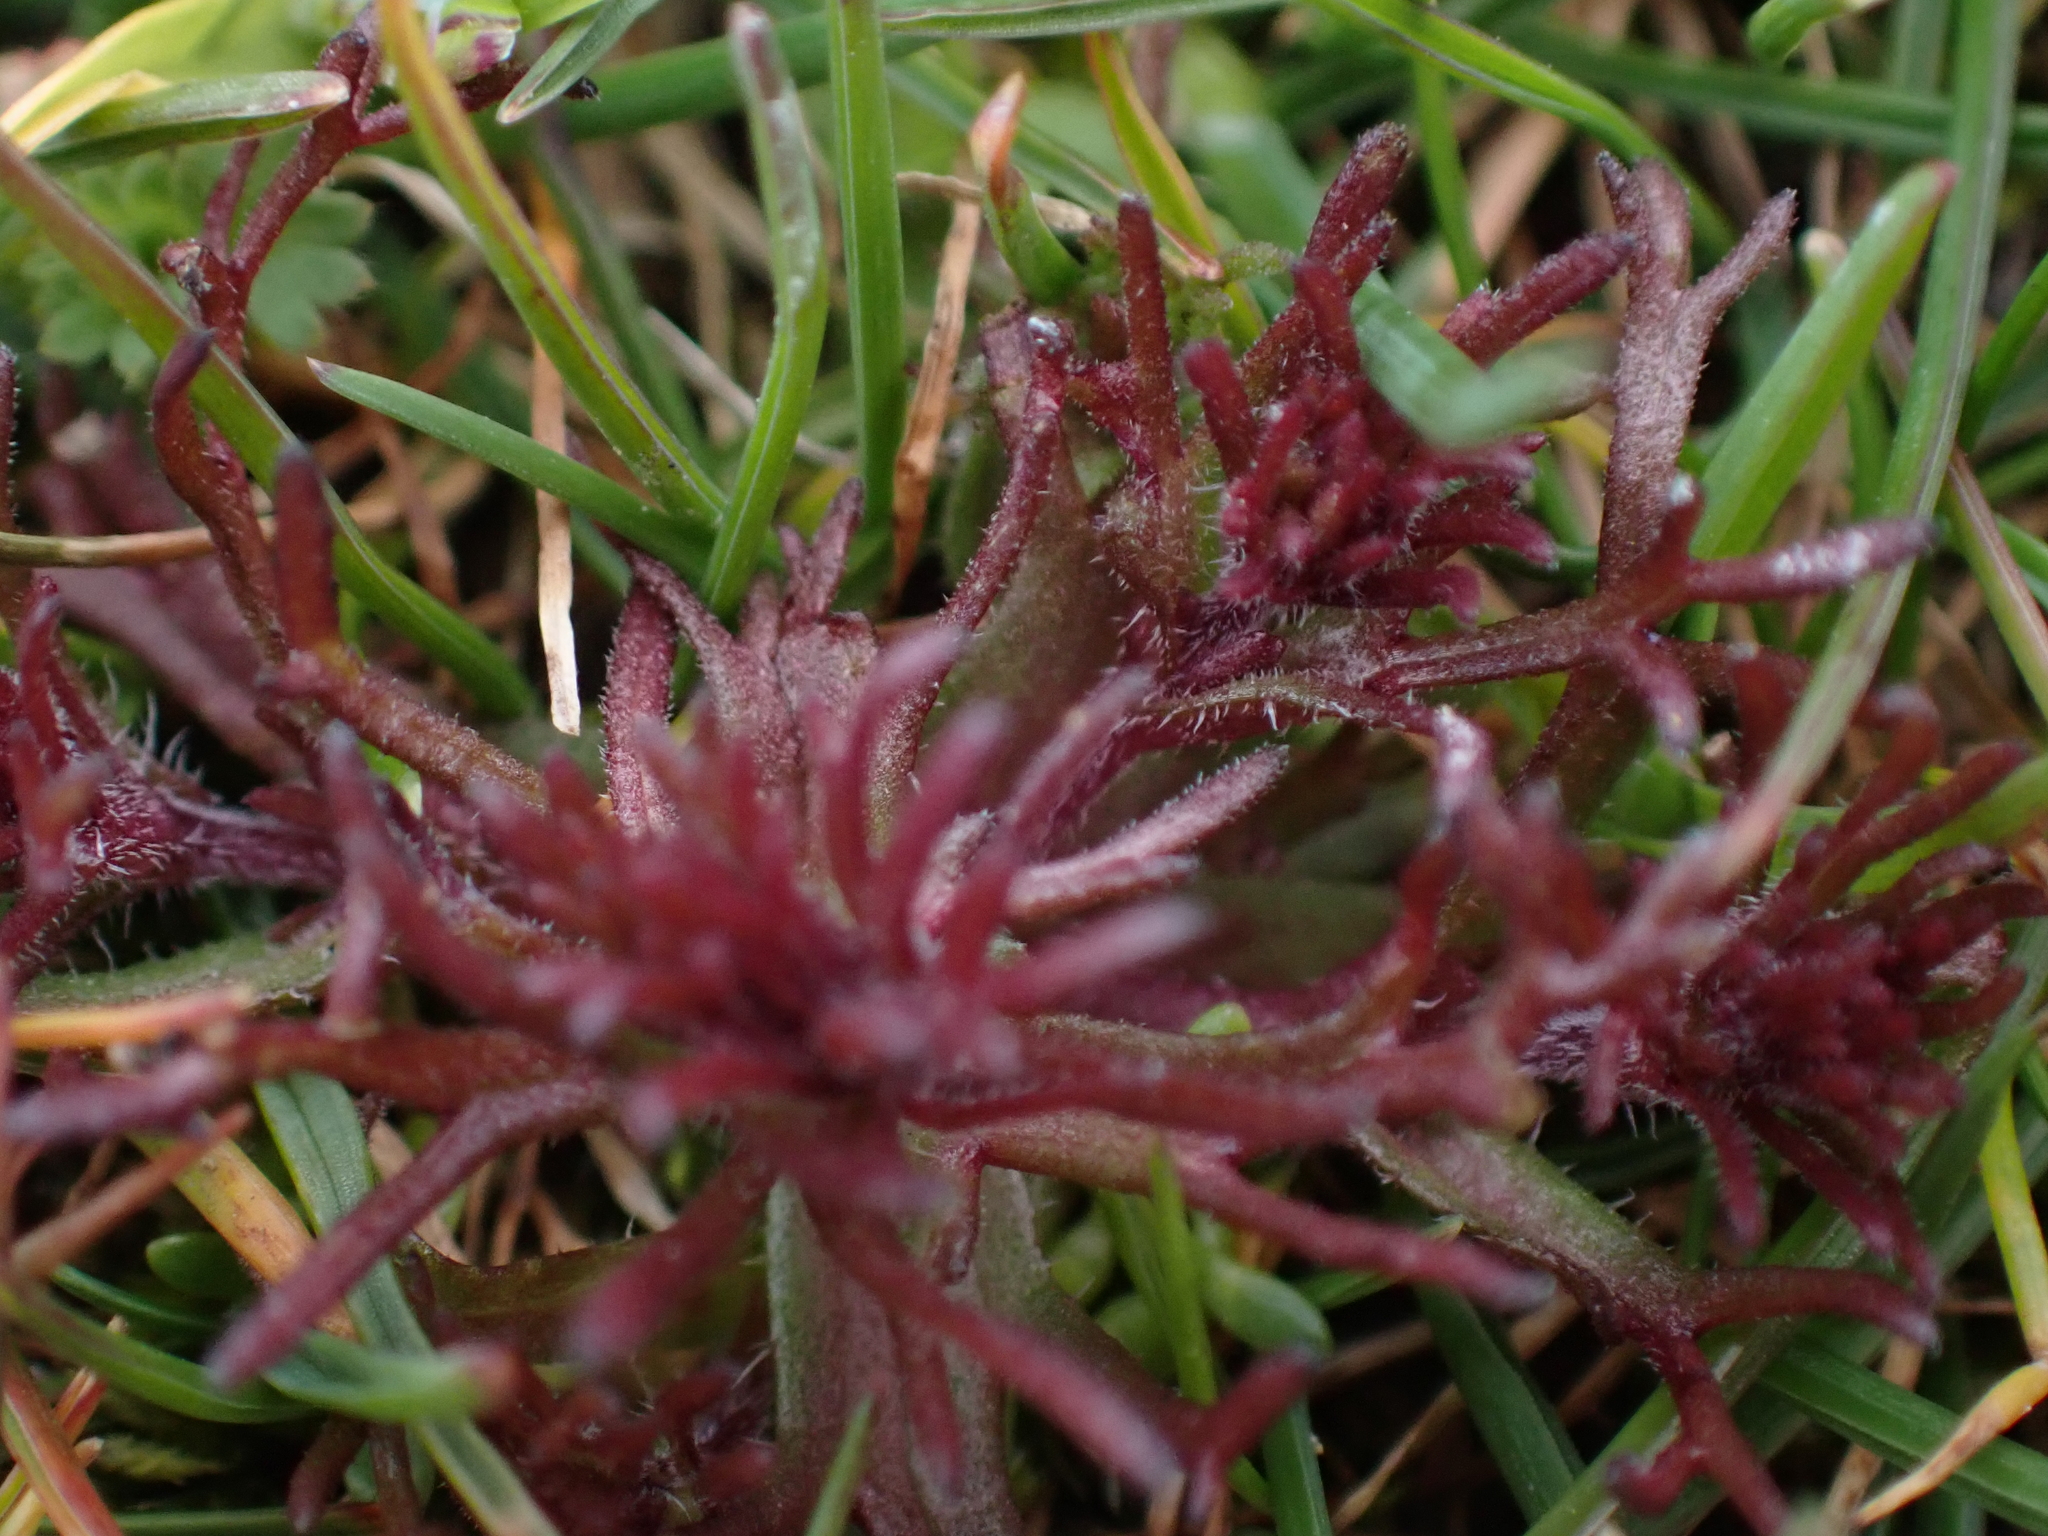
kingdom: Plantae
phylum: Tracheophyta
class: Magnoliopsida
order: Lamiales
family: Orobanchaceae
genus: Triphysaria
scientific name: Triphysaria pusilla
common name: Dwarf false owl-clover
